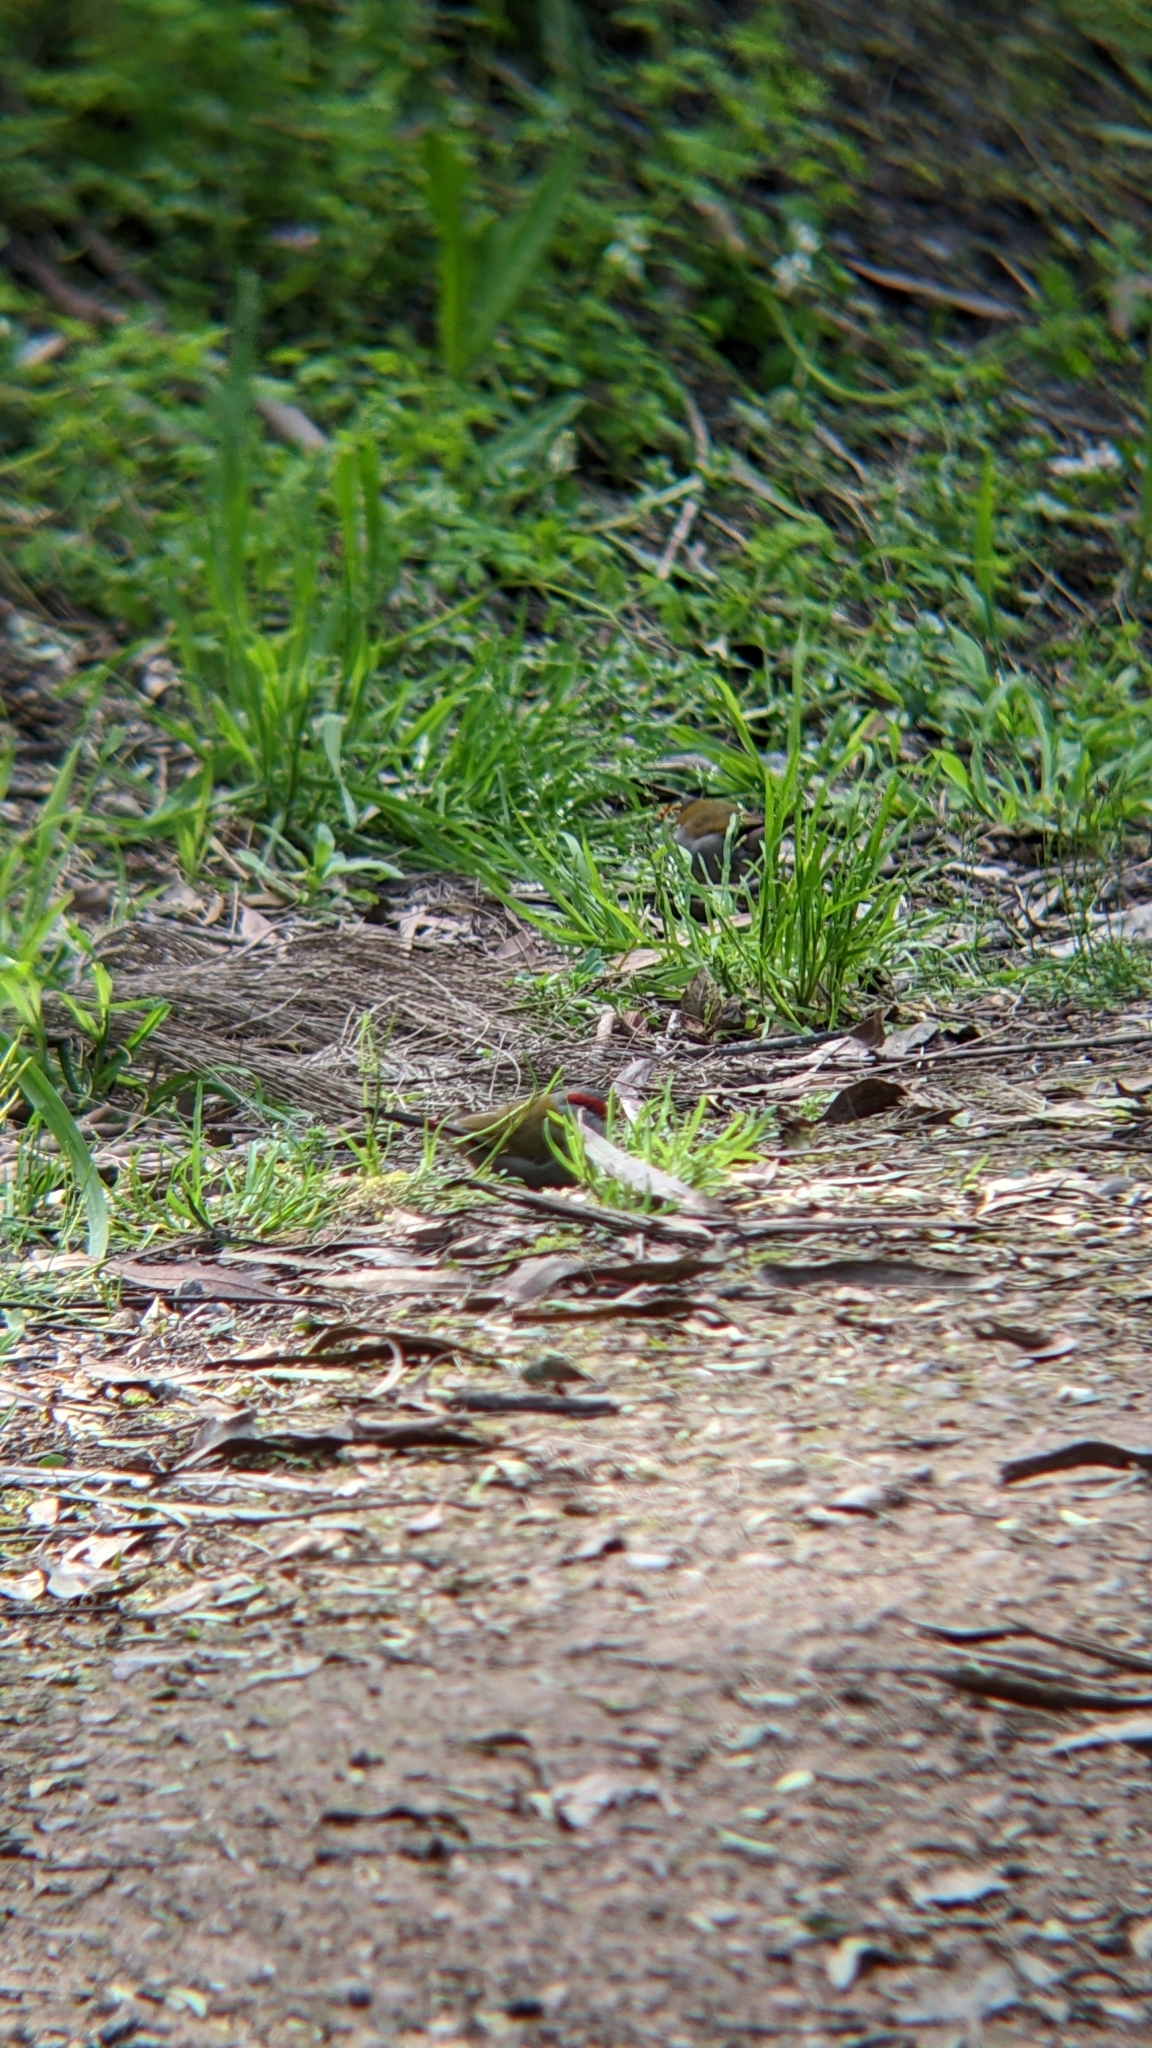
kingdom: Animalia
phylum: Chordata
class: Aves
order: Passeriformes
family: Estrildidae
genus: Neochmia
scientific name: Neochmia temporalis
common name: Red-browed finch
